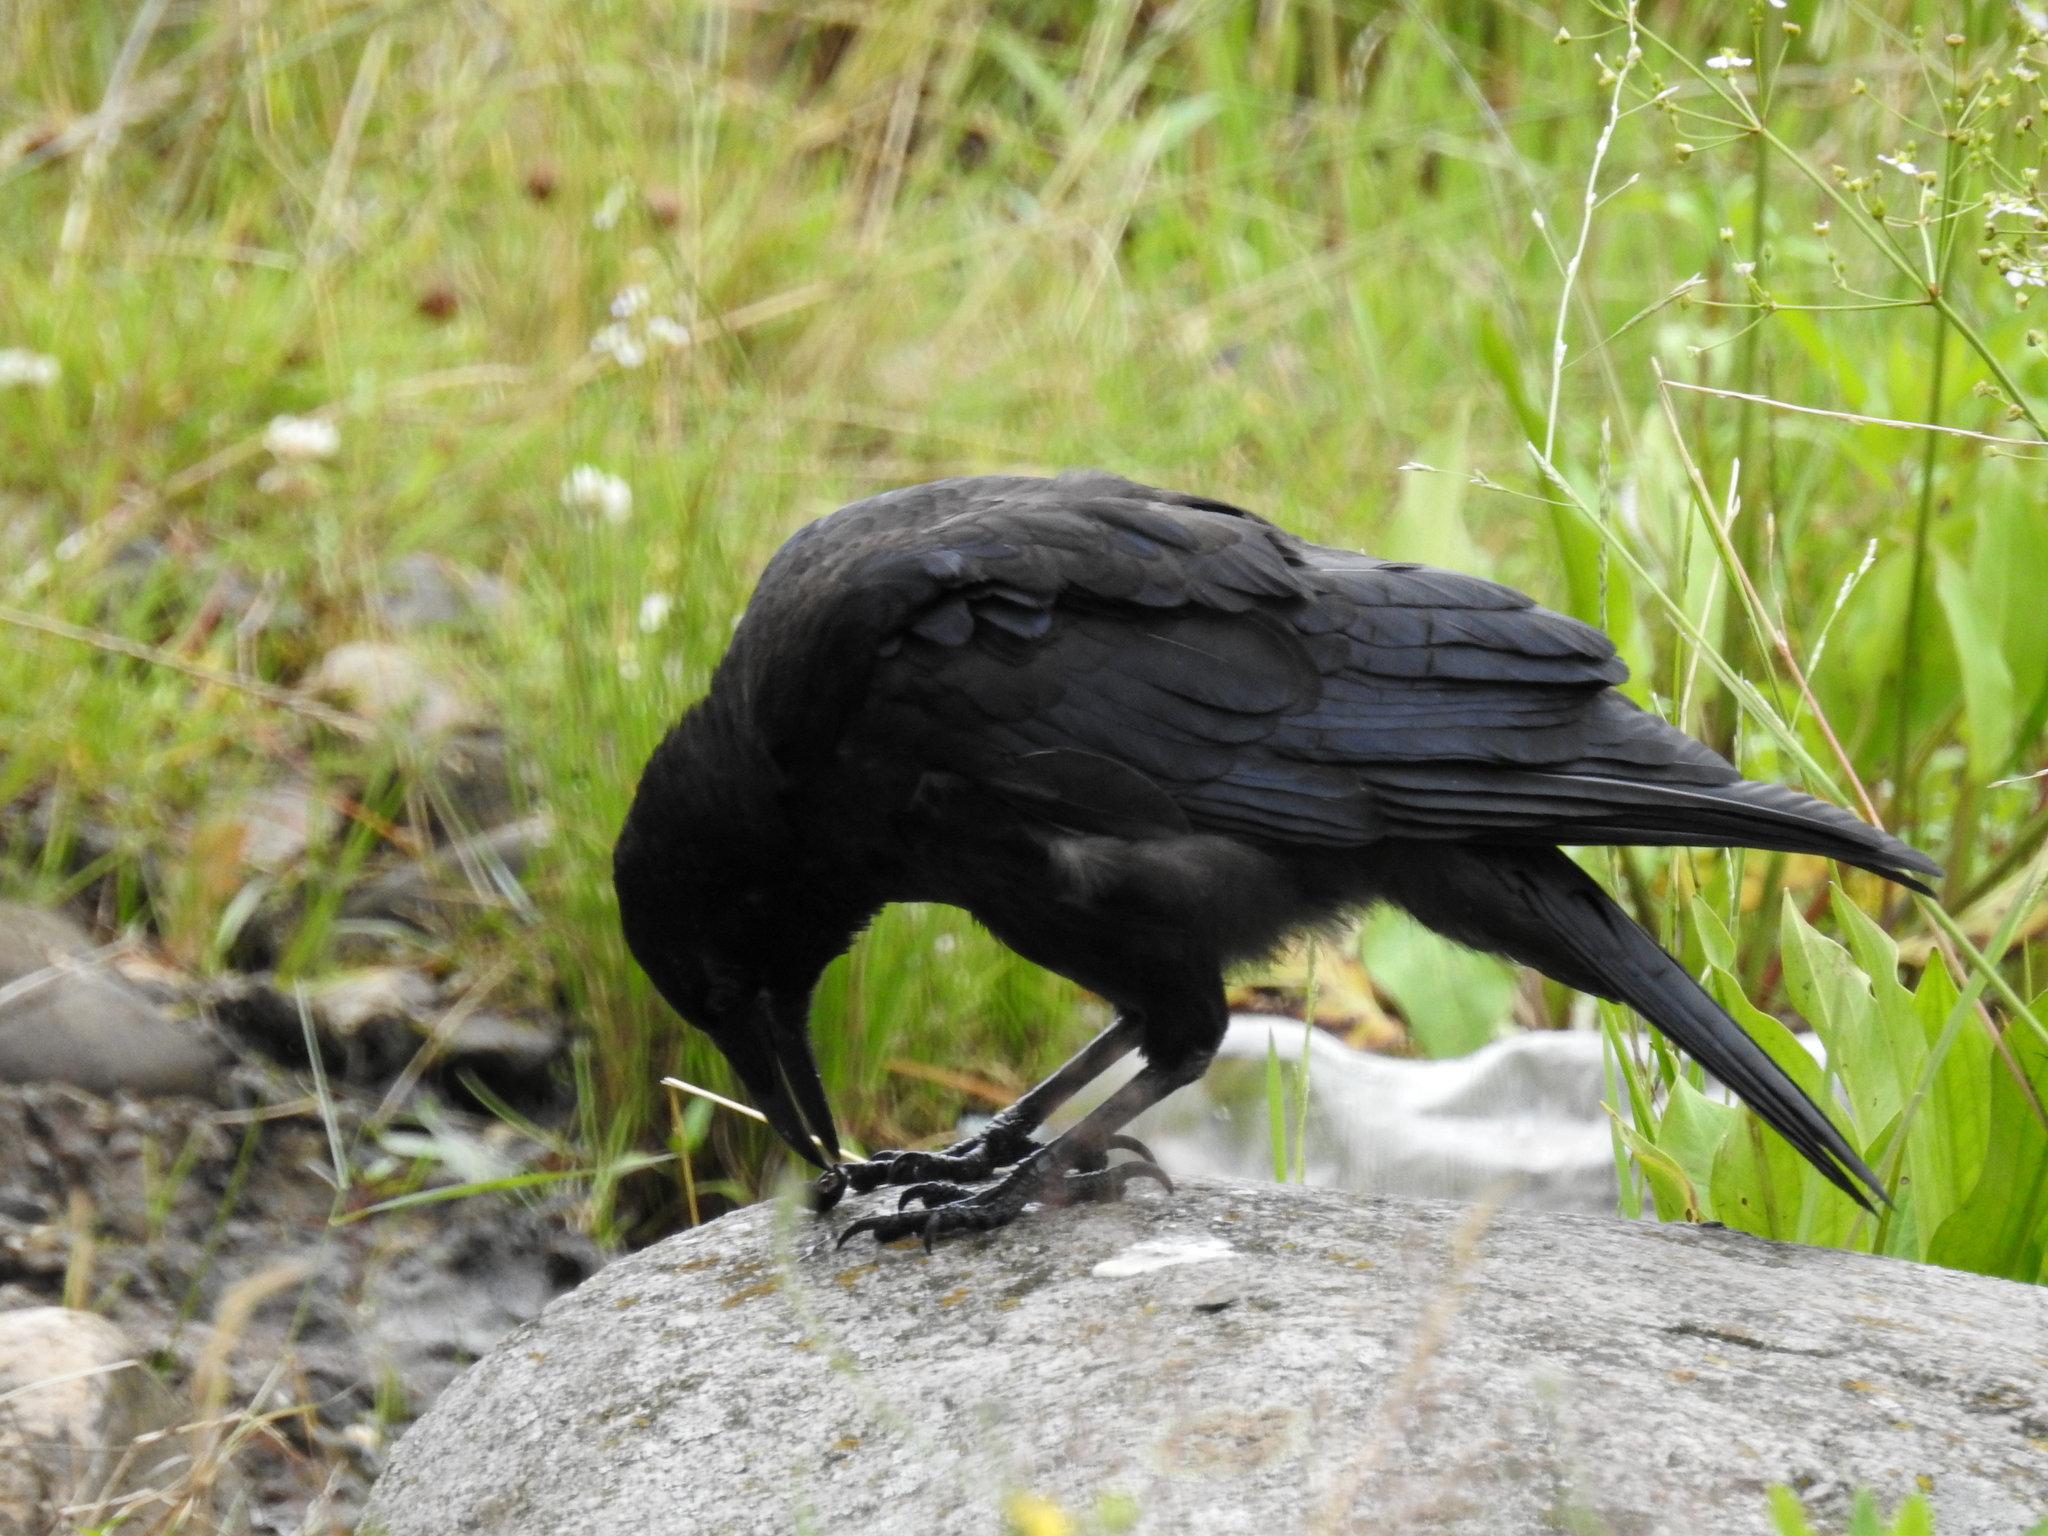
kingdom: Animalia
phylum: Chordata
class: Aves
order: Passeriformes
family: Corvidae
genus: Corvus
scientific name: Corvus corone
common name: Carrion crow
